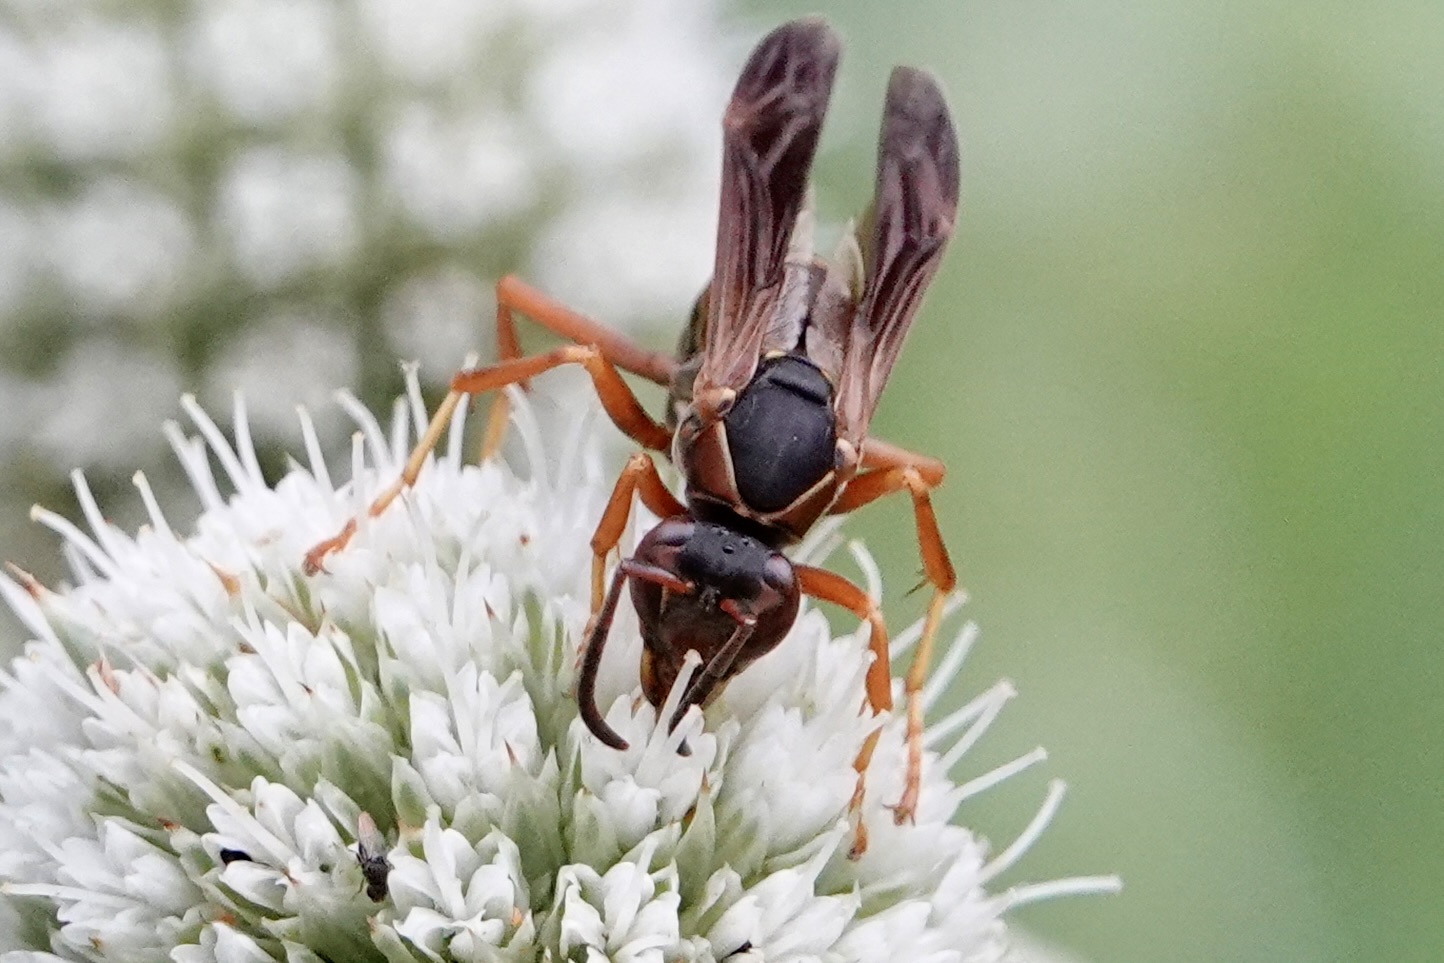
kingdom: Animalia
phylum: Arthropoda
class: Insecta
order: Hymenoptera
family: Eumenidae
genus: Polistes
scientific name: Polistes fuscatus
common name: Dark paper wasp
